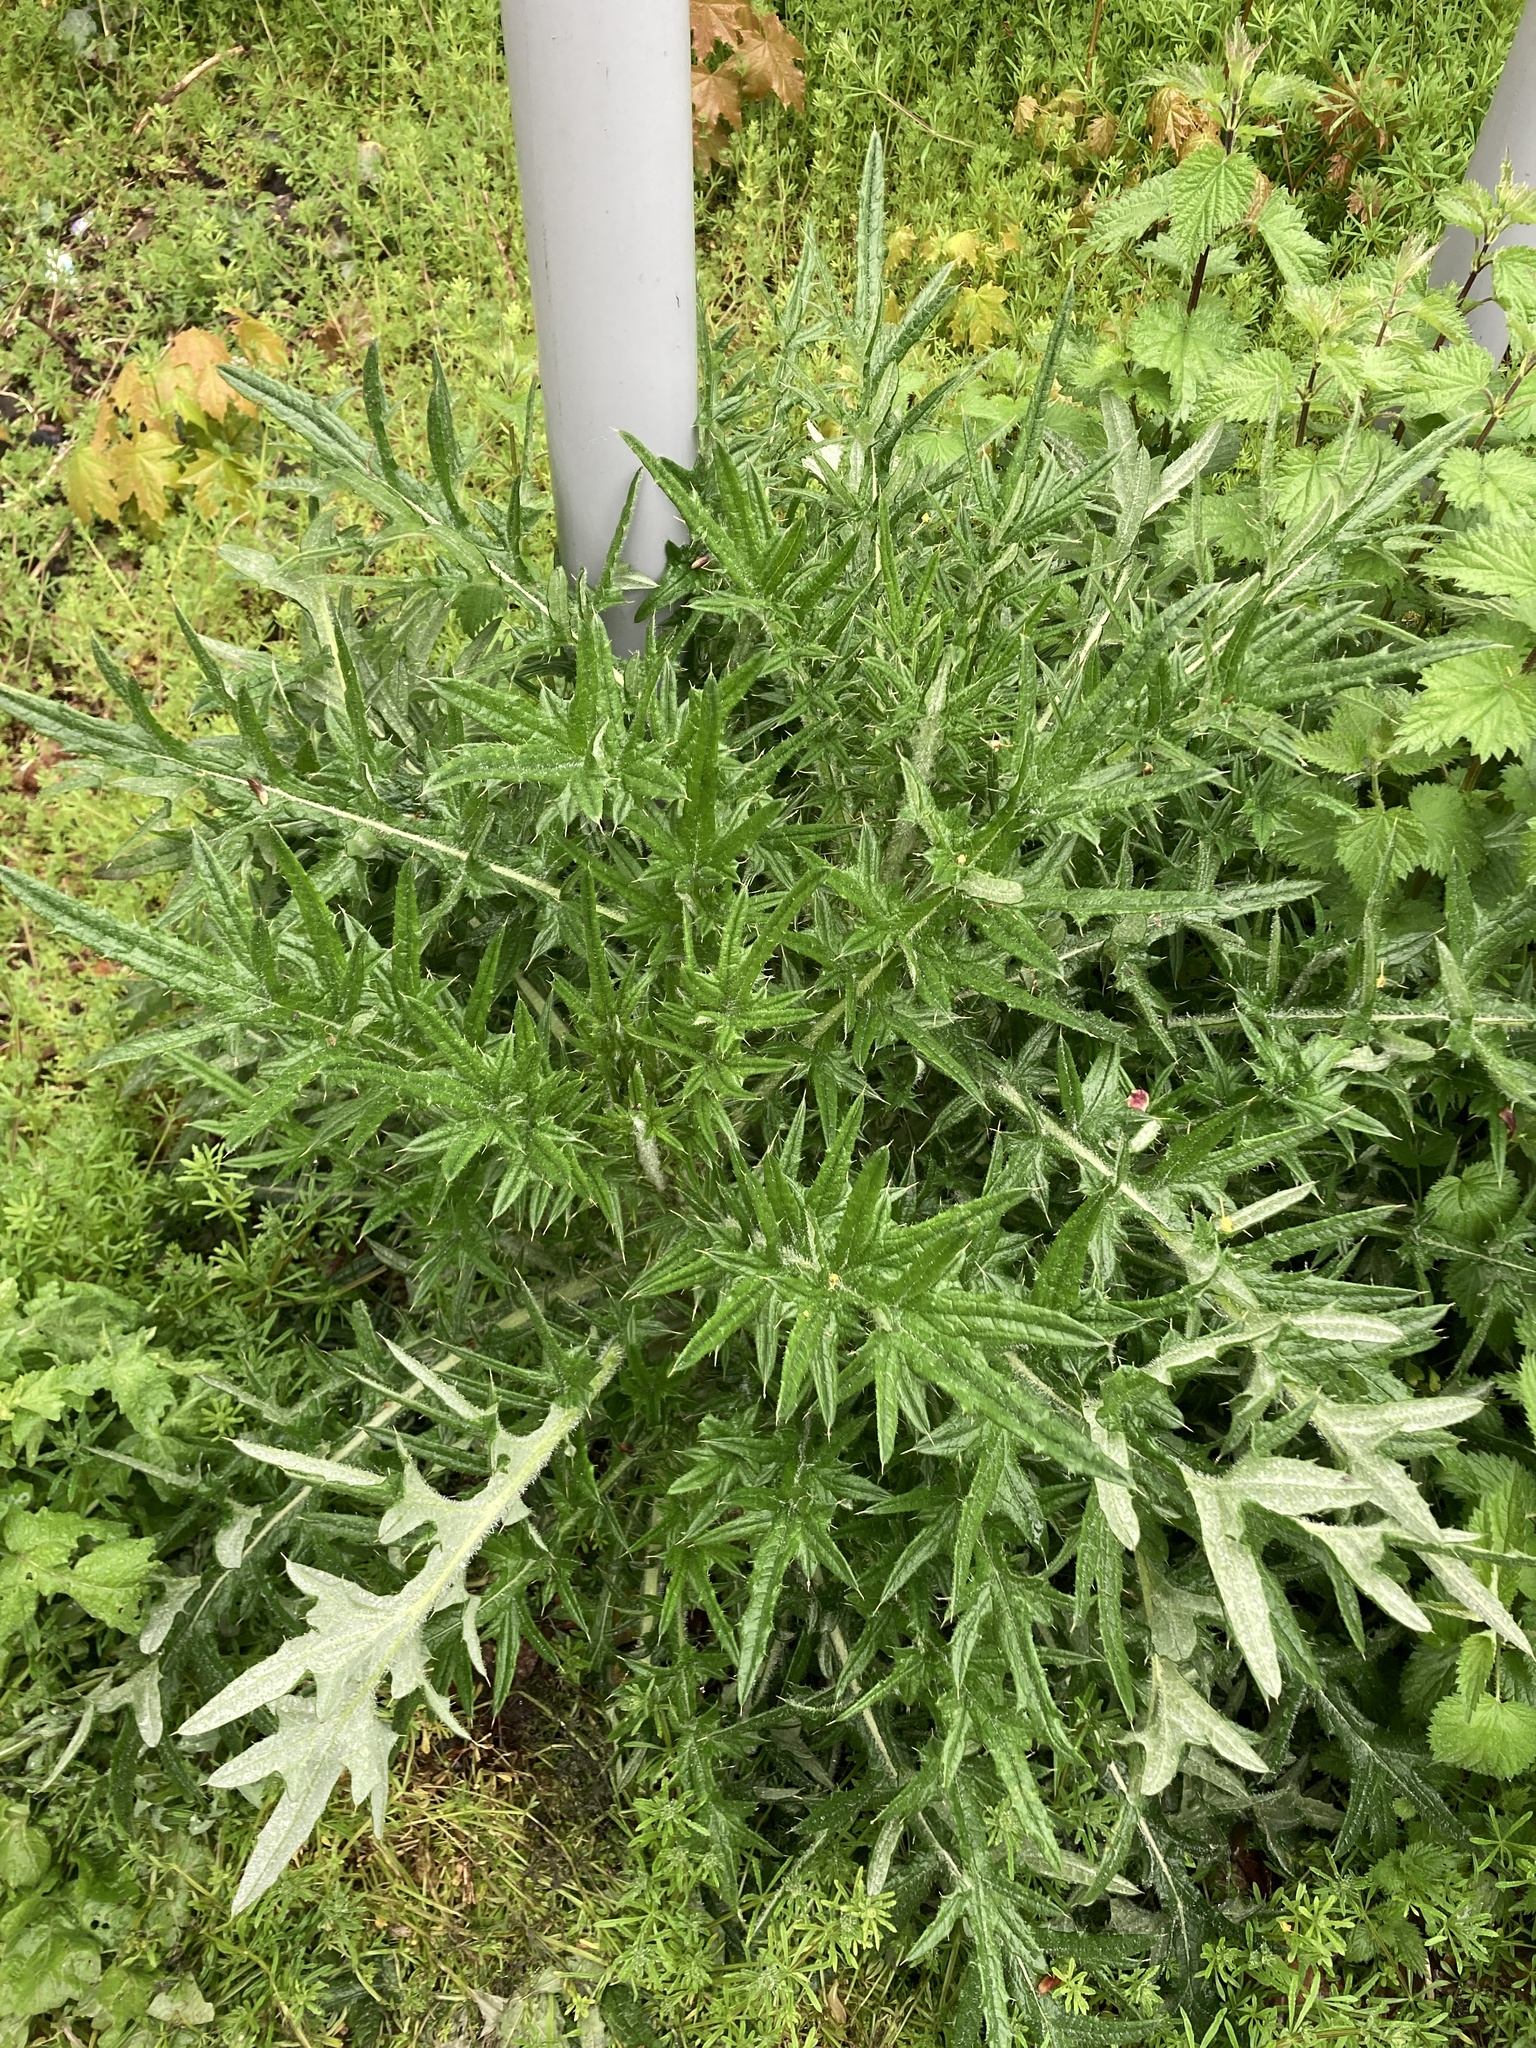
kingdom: Plantae
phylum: Tracheophyta
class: Magnoliopsida
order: Asterales
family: Asteraceae
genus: Cirsium
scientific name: Cirsium vulgare
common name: Bull thistle
